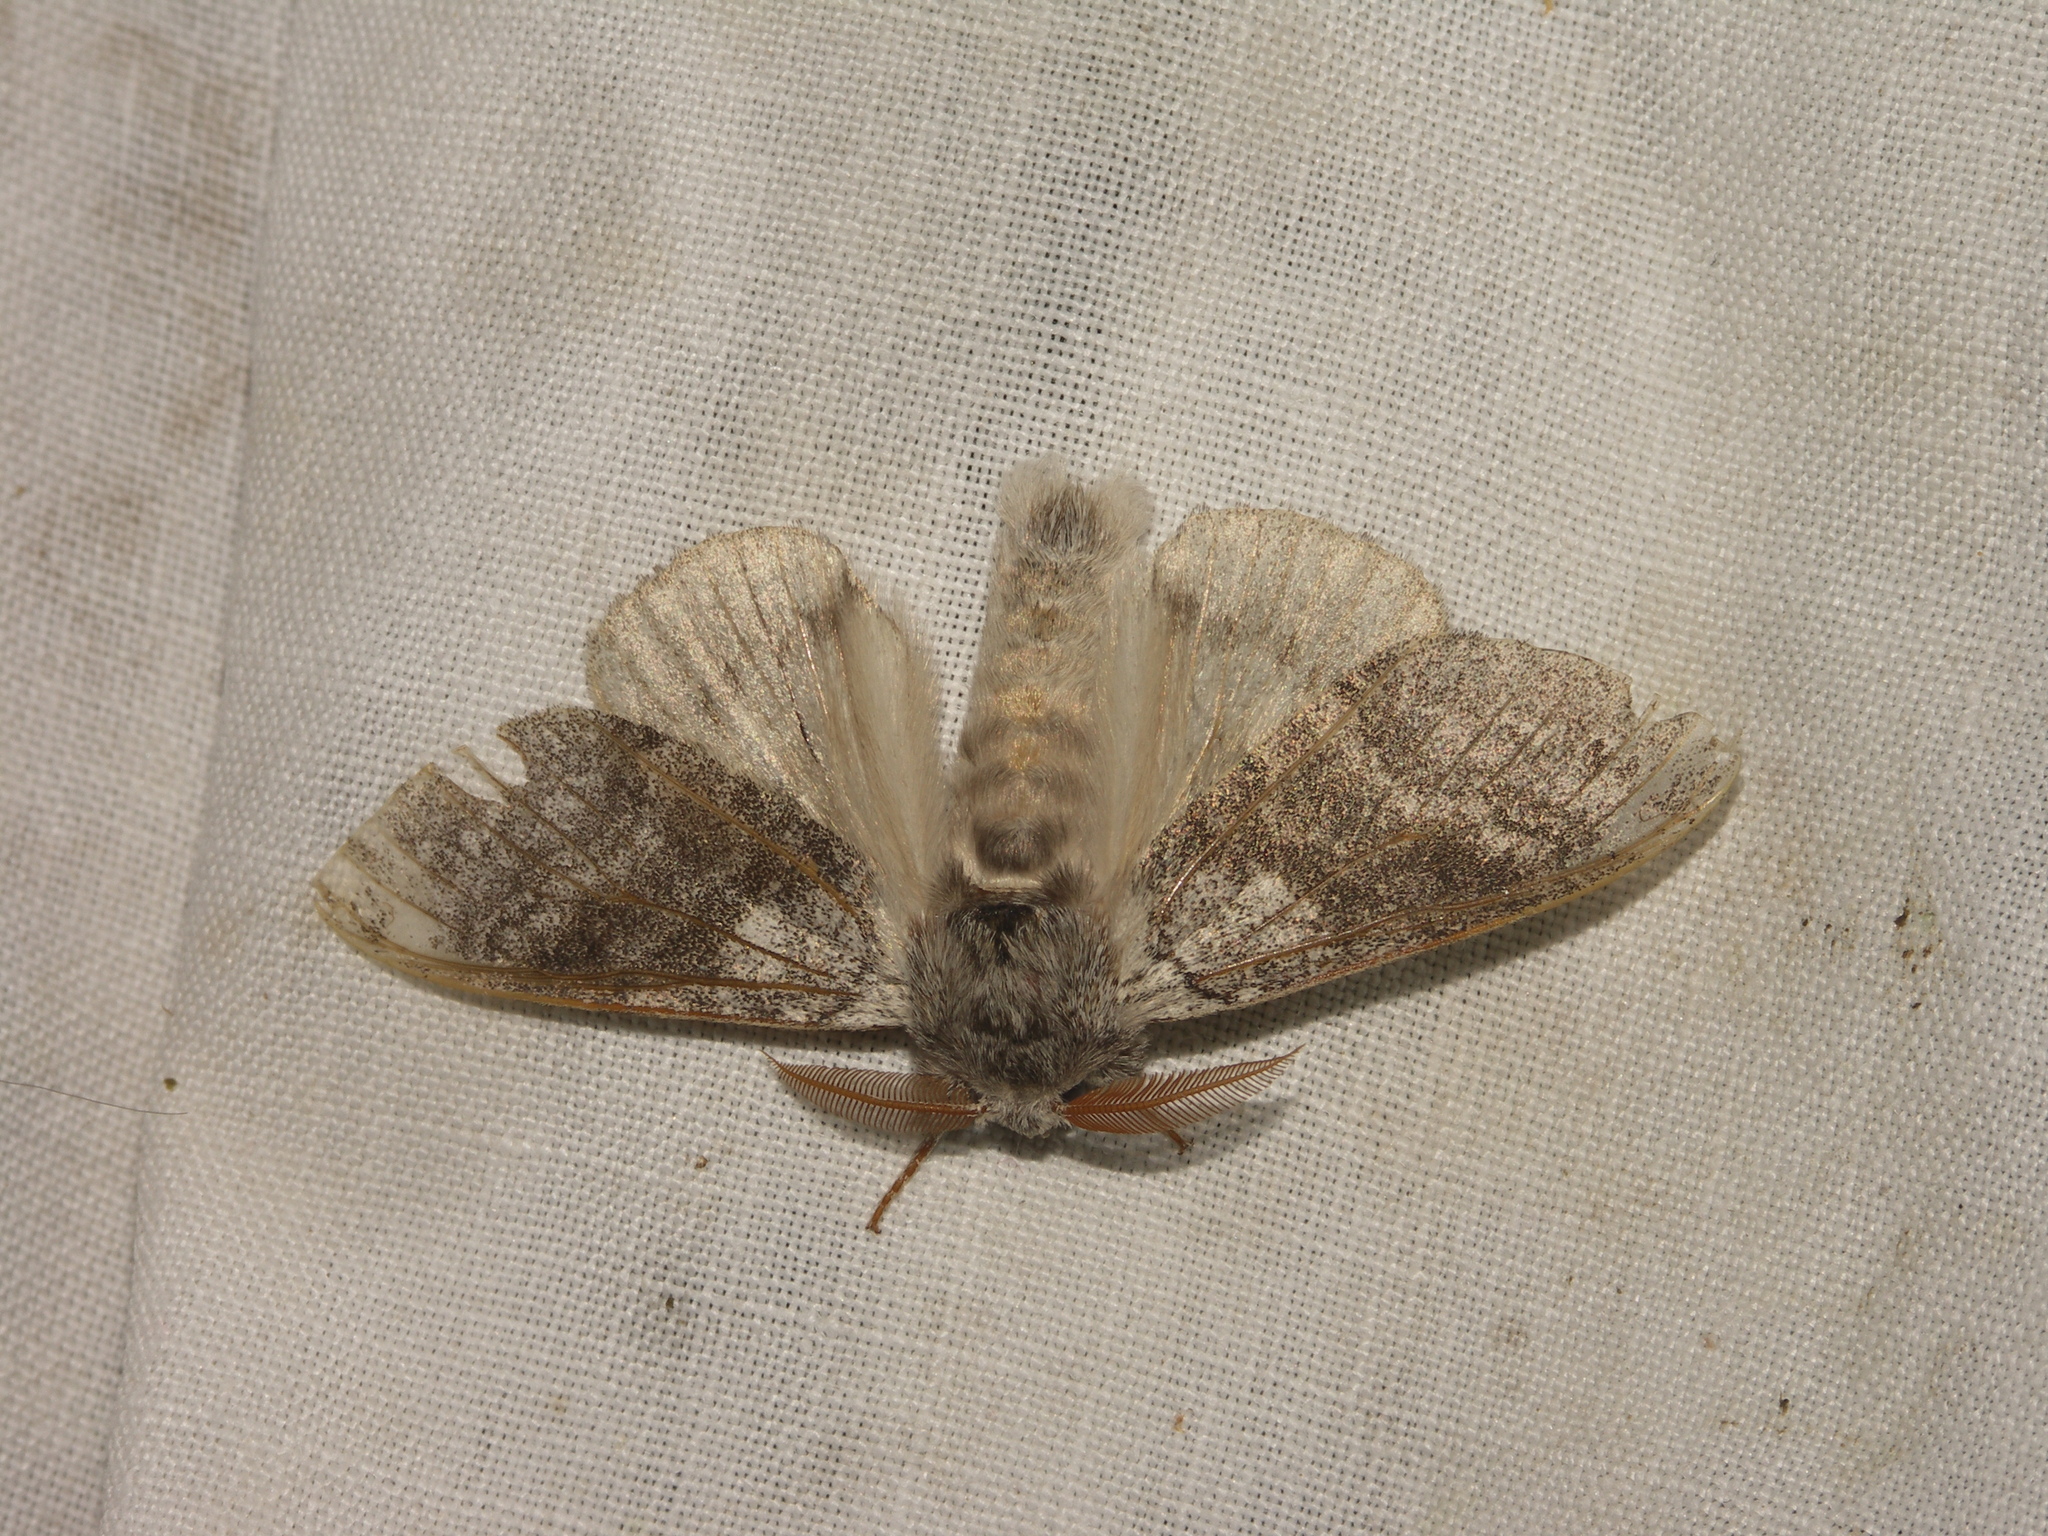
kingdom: Animalia
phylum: Arthropoda
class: Insecta
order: Lepidoptera
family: Erebidae
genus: Calliteara
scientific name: Calliteara pudibunda
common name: Pale tussock
